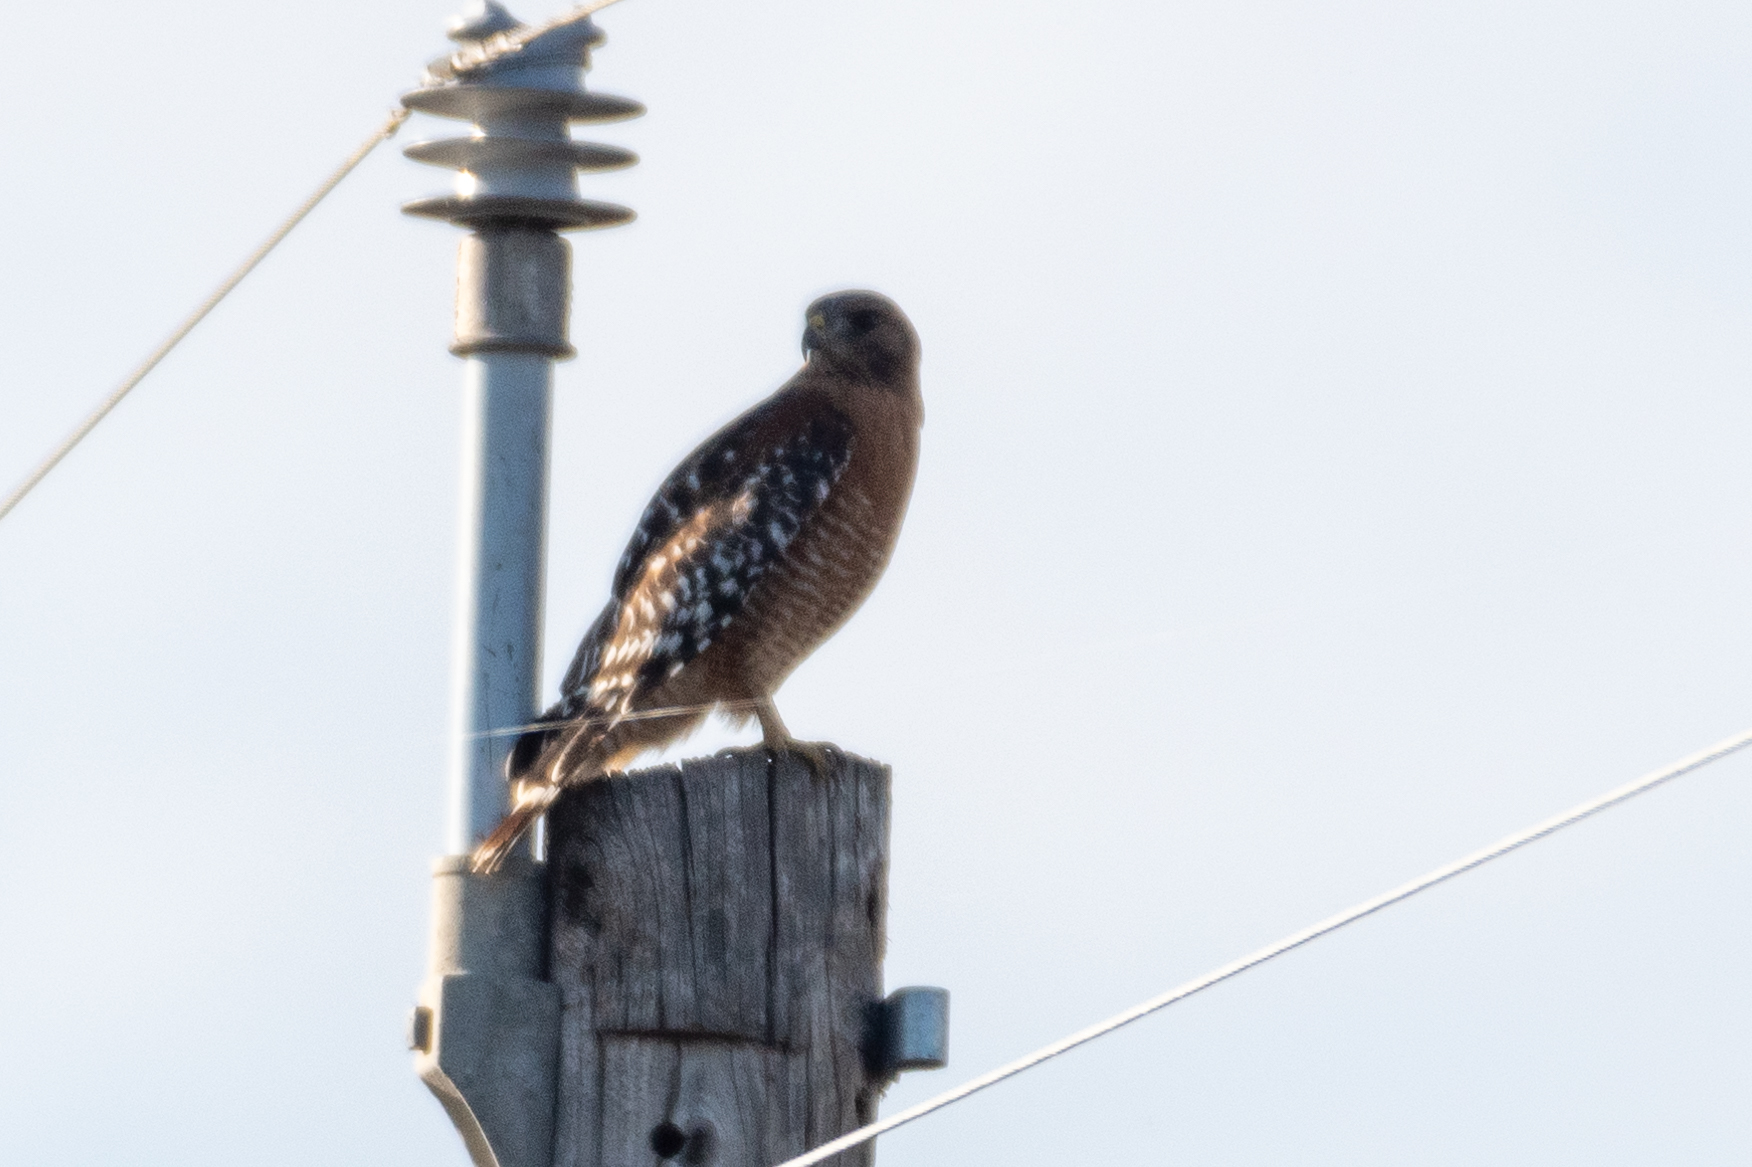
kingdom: Animalia
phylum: Chordata
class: Aves
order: Accipitriformes
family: Accipitridae
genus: Buteo
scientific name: Buteo lineatus
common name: Red-shouldered hawk
